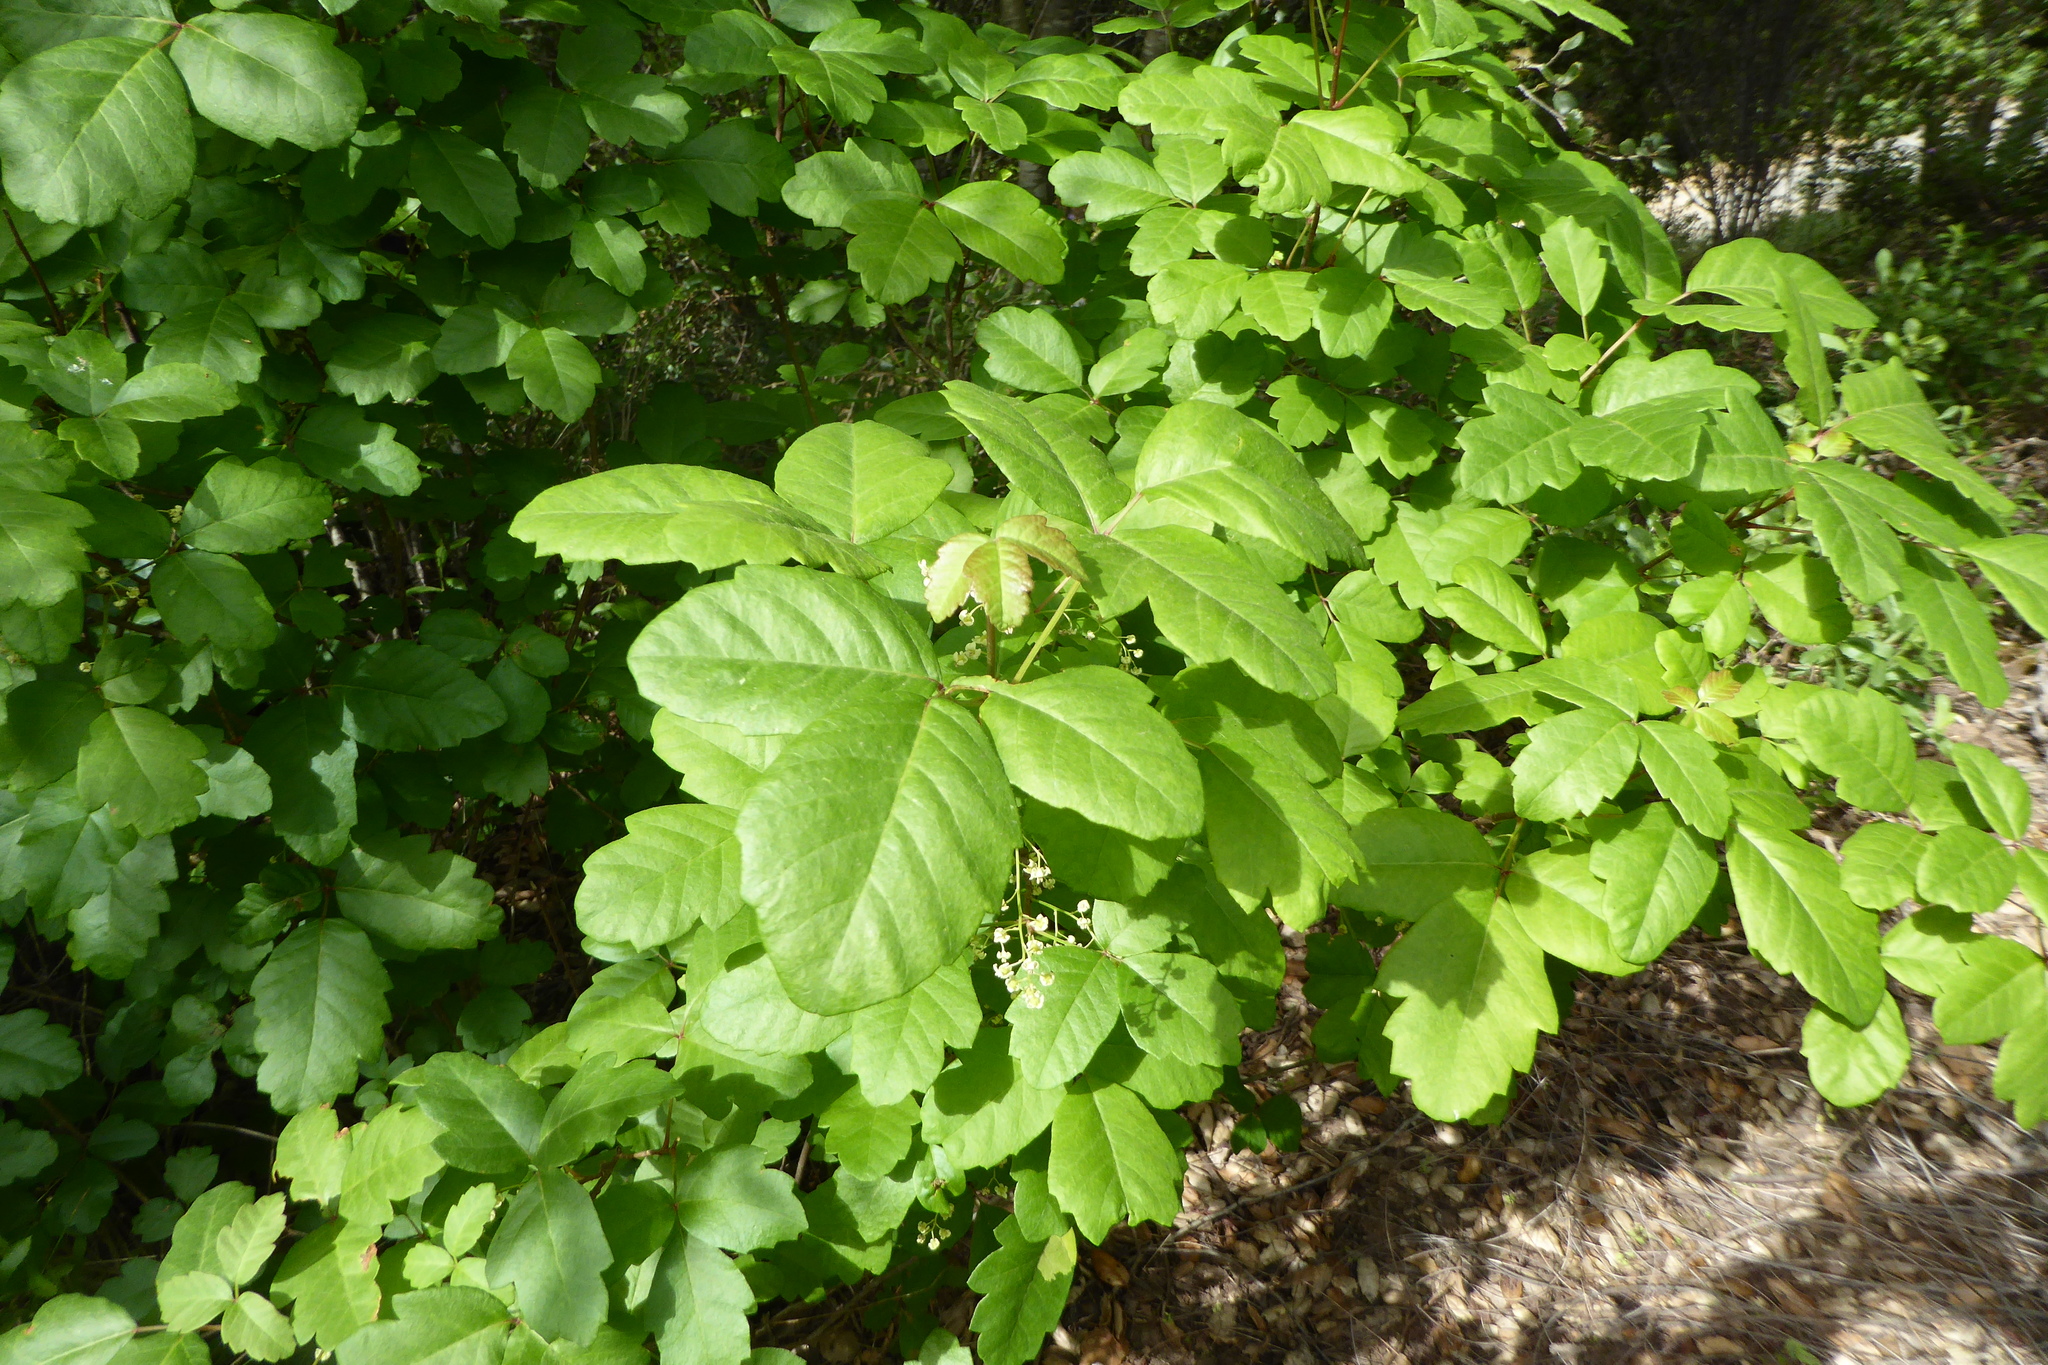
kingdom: Plantae
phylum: Tracheophyta
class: Magnoliopsida
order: Sapindales
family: Anacardiaceae
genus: Toxicodendron
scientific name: Toxicodendron diversilobum
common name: Pacific poison-oak
